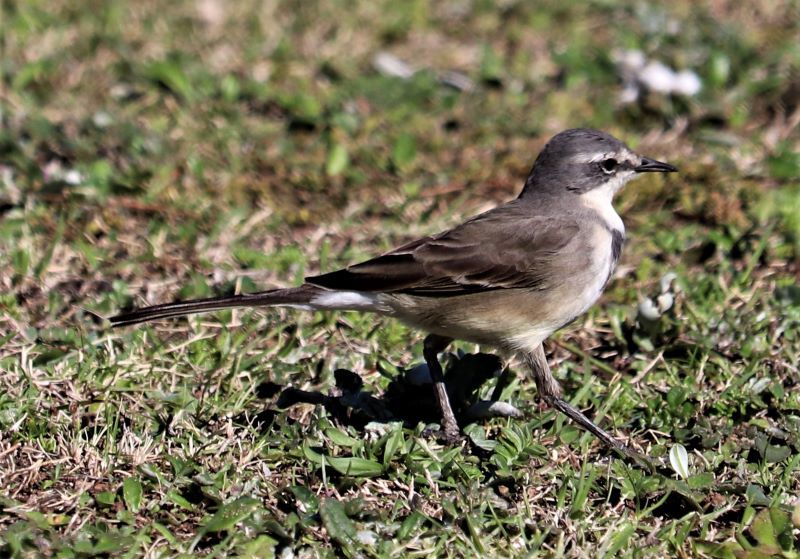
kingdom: Animalia
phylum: Chordata
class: Aves
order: Passeriformes
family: Motacillidae
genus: Motacilla
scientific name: Motacilla capensis
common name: Cape wagtail
